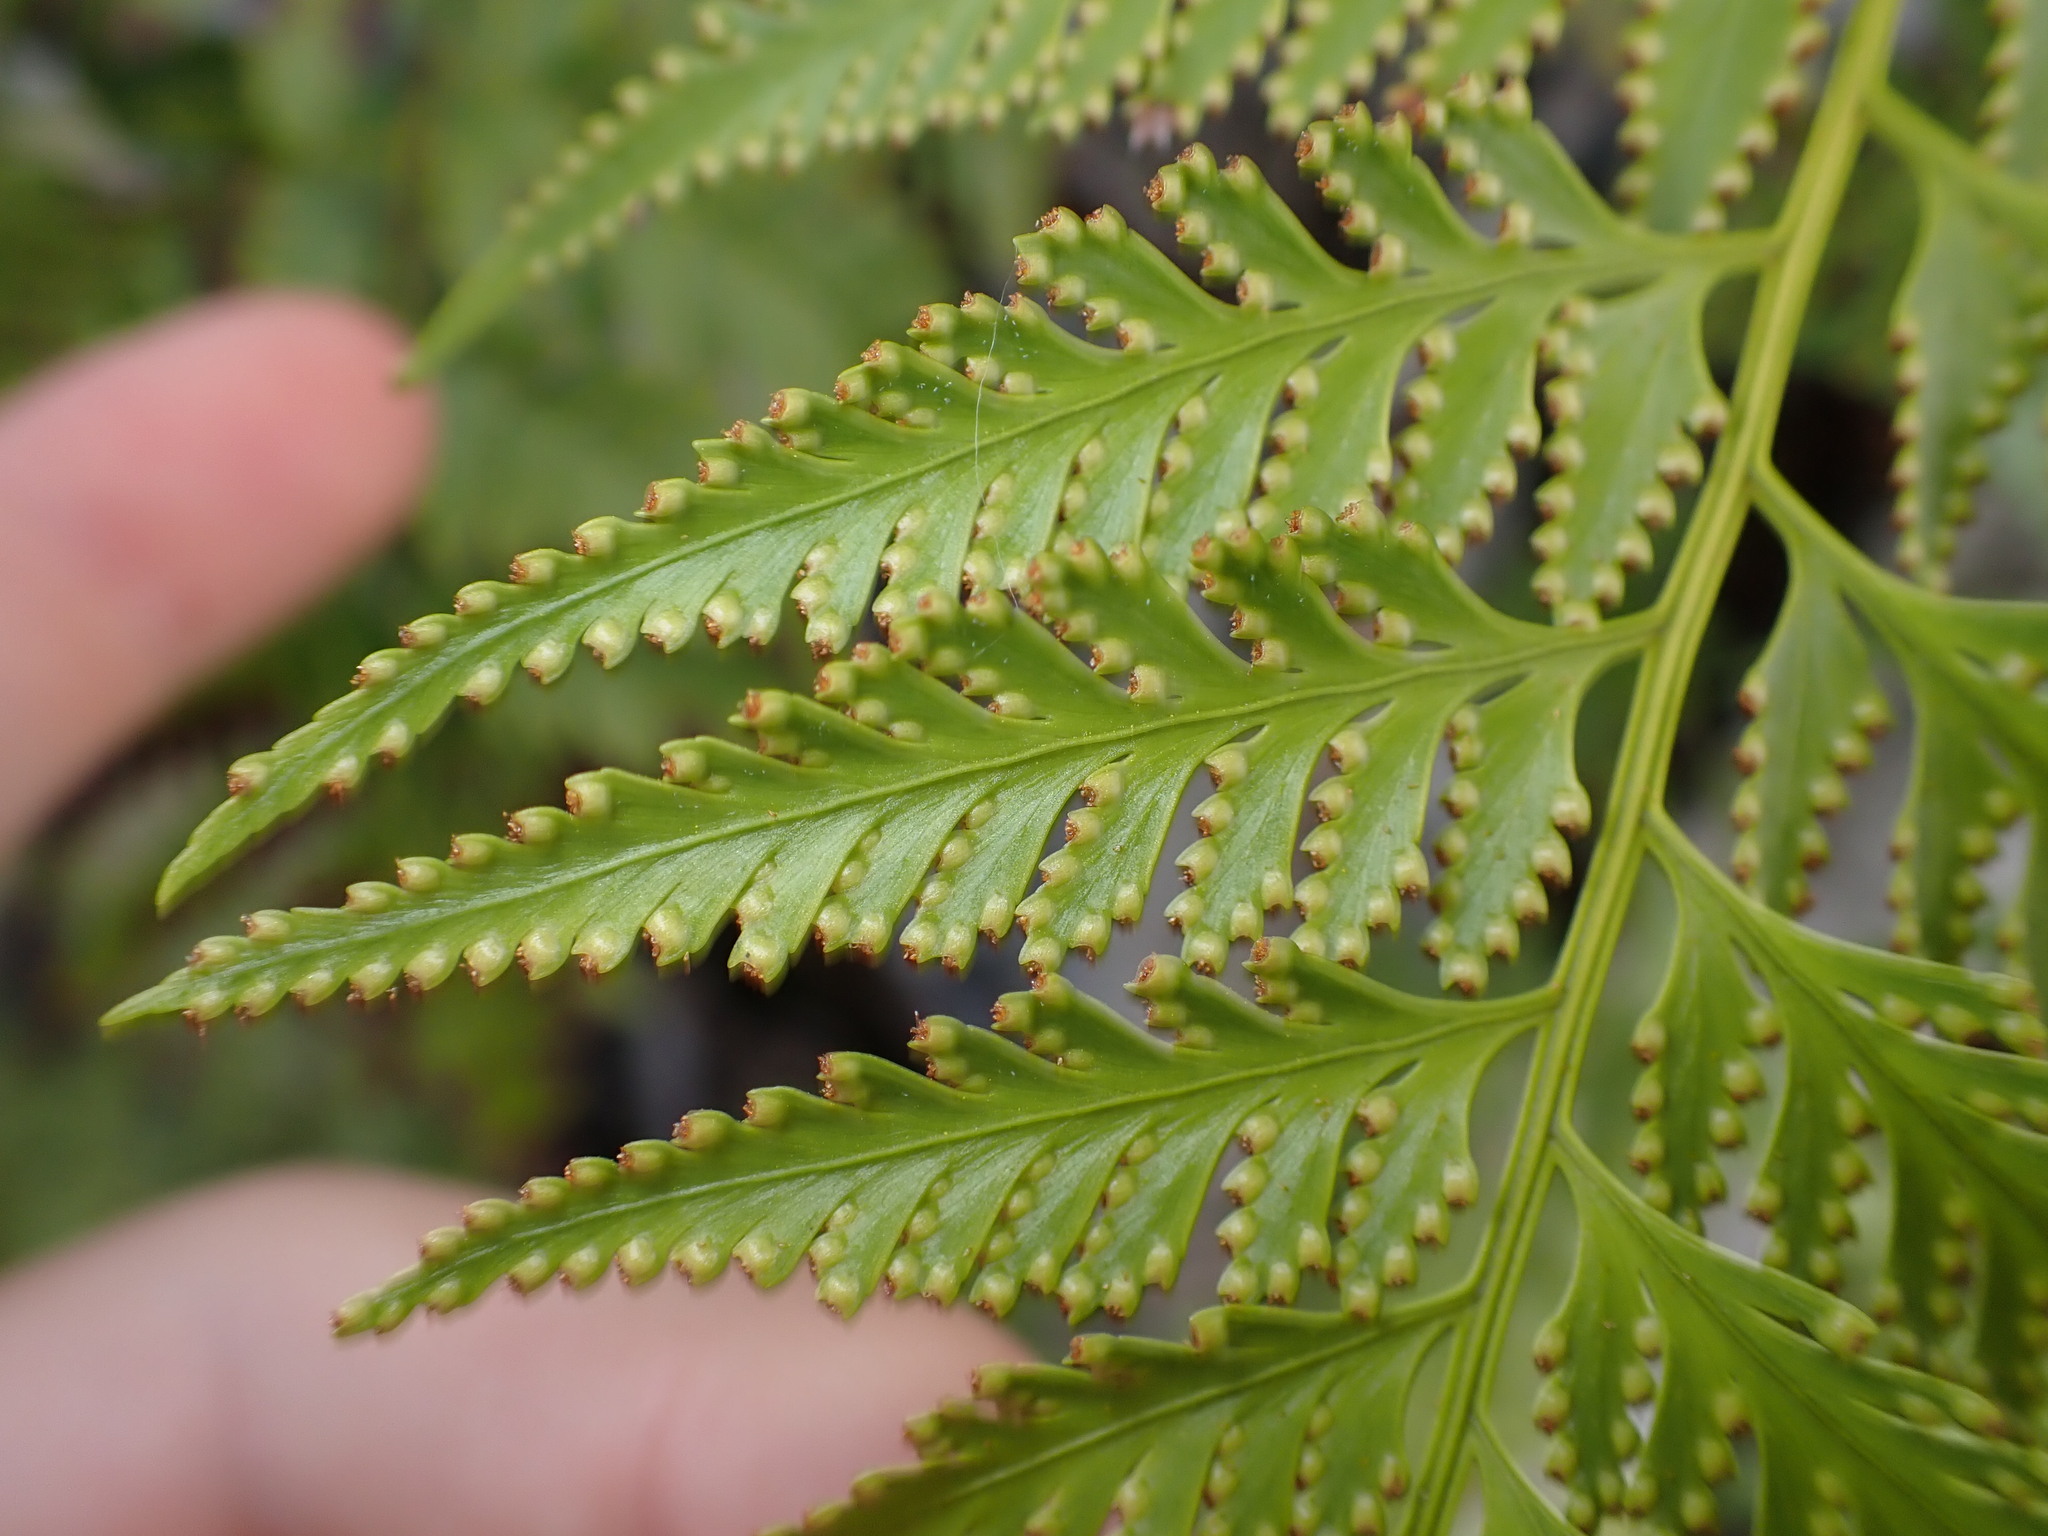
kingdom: Plantae
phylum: Tracheophyta
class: Polypodiopsida
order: Polypodiales
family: Davalliaceae
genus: Davallia
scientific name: Davallia denticulata
